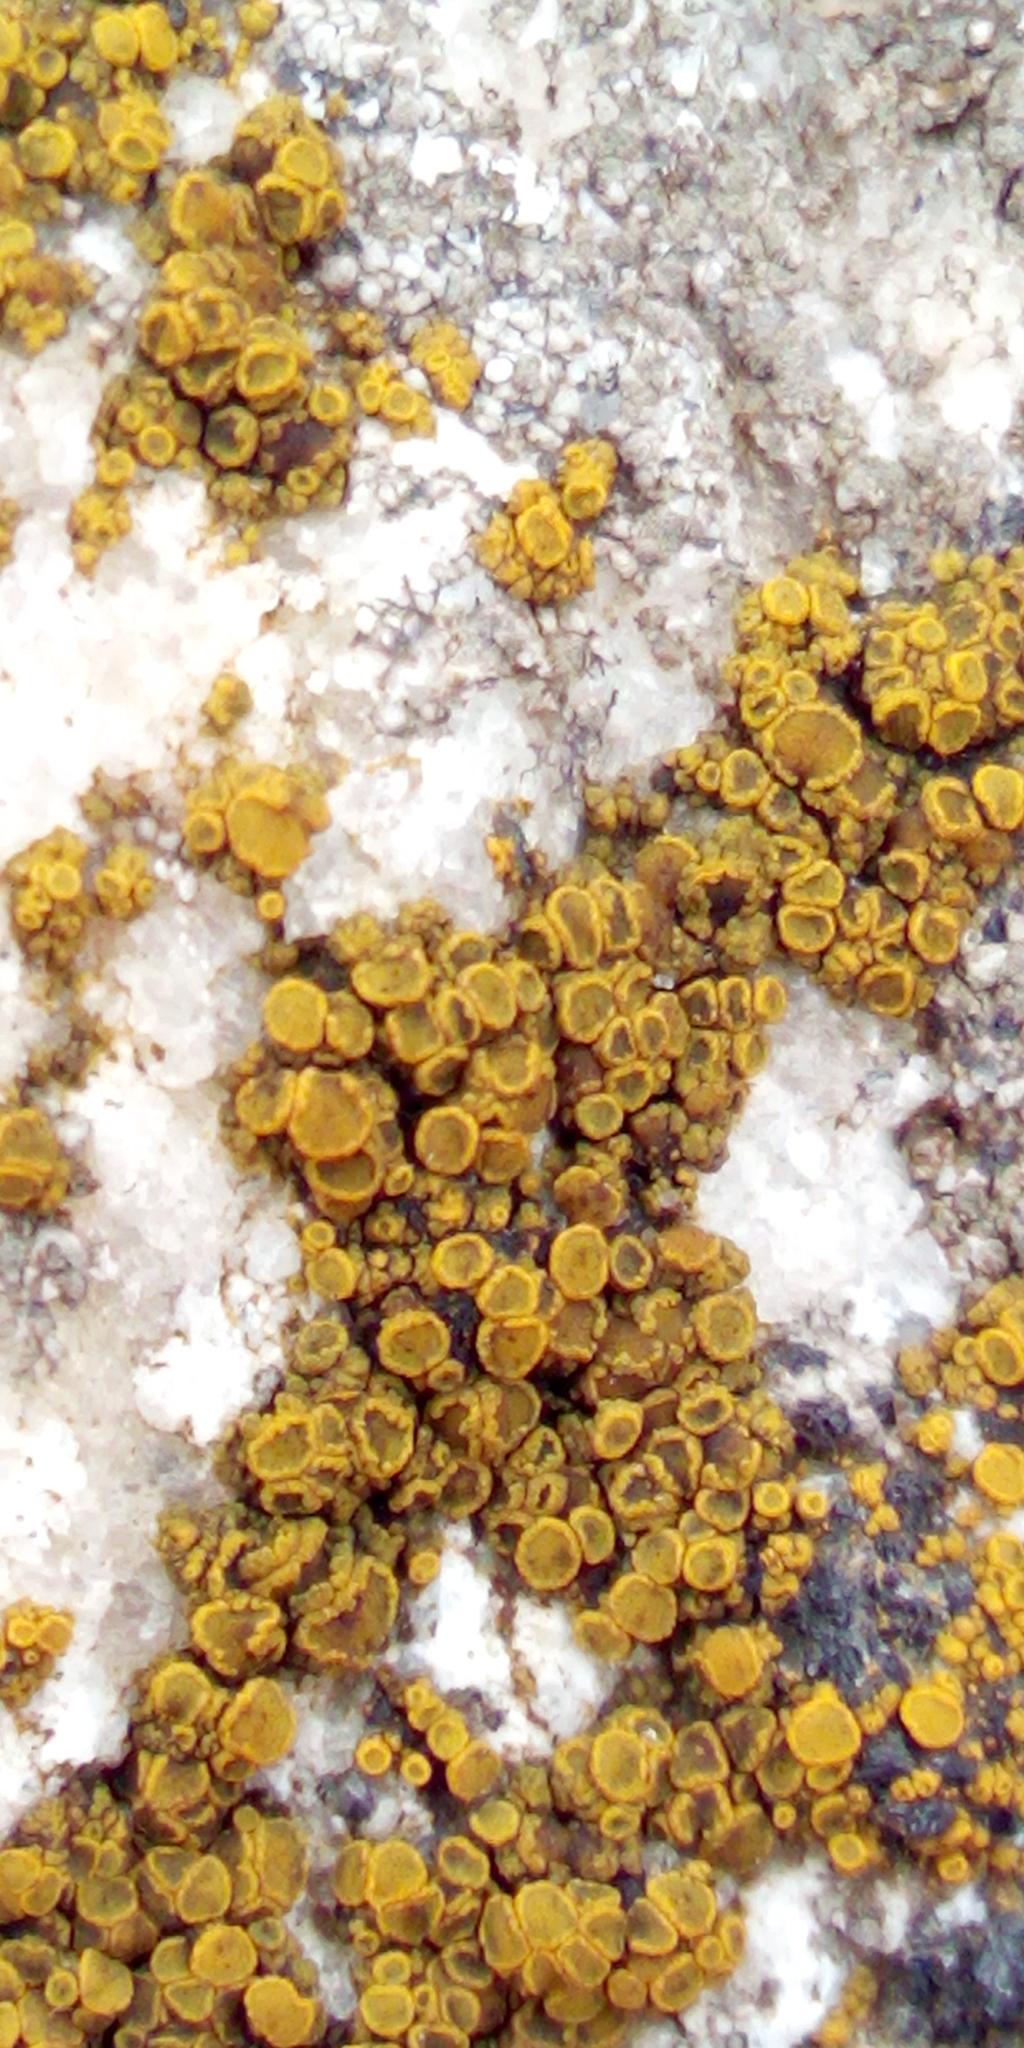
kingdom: Fungi
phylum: Ascomycota
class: Candelariomycetes
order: Candelariales
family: Candelariaceae
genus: Candelariella
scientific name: Candelariella vitellina
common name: Common goldspeck
